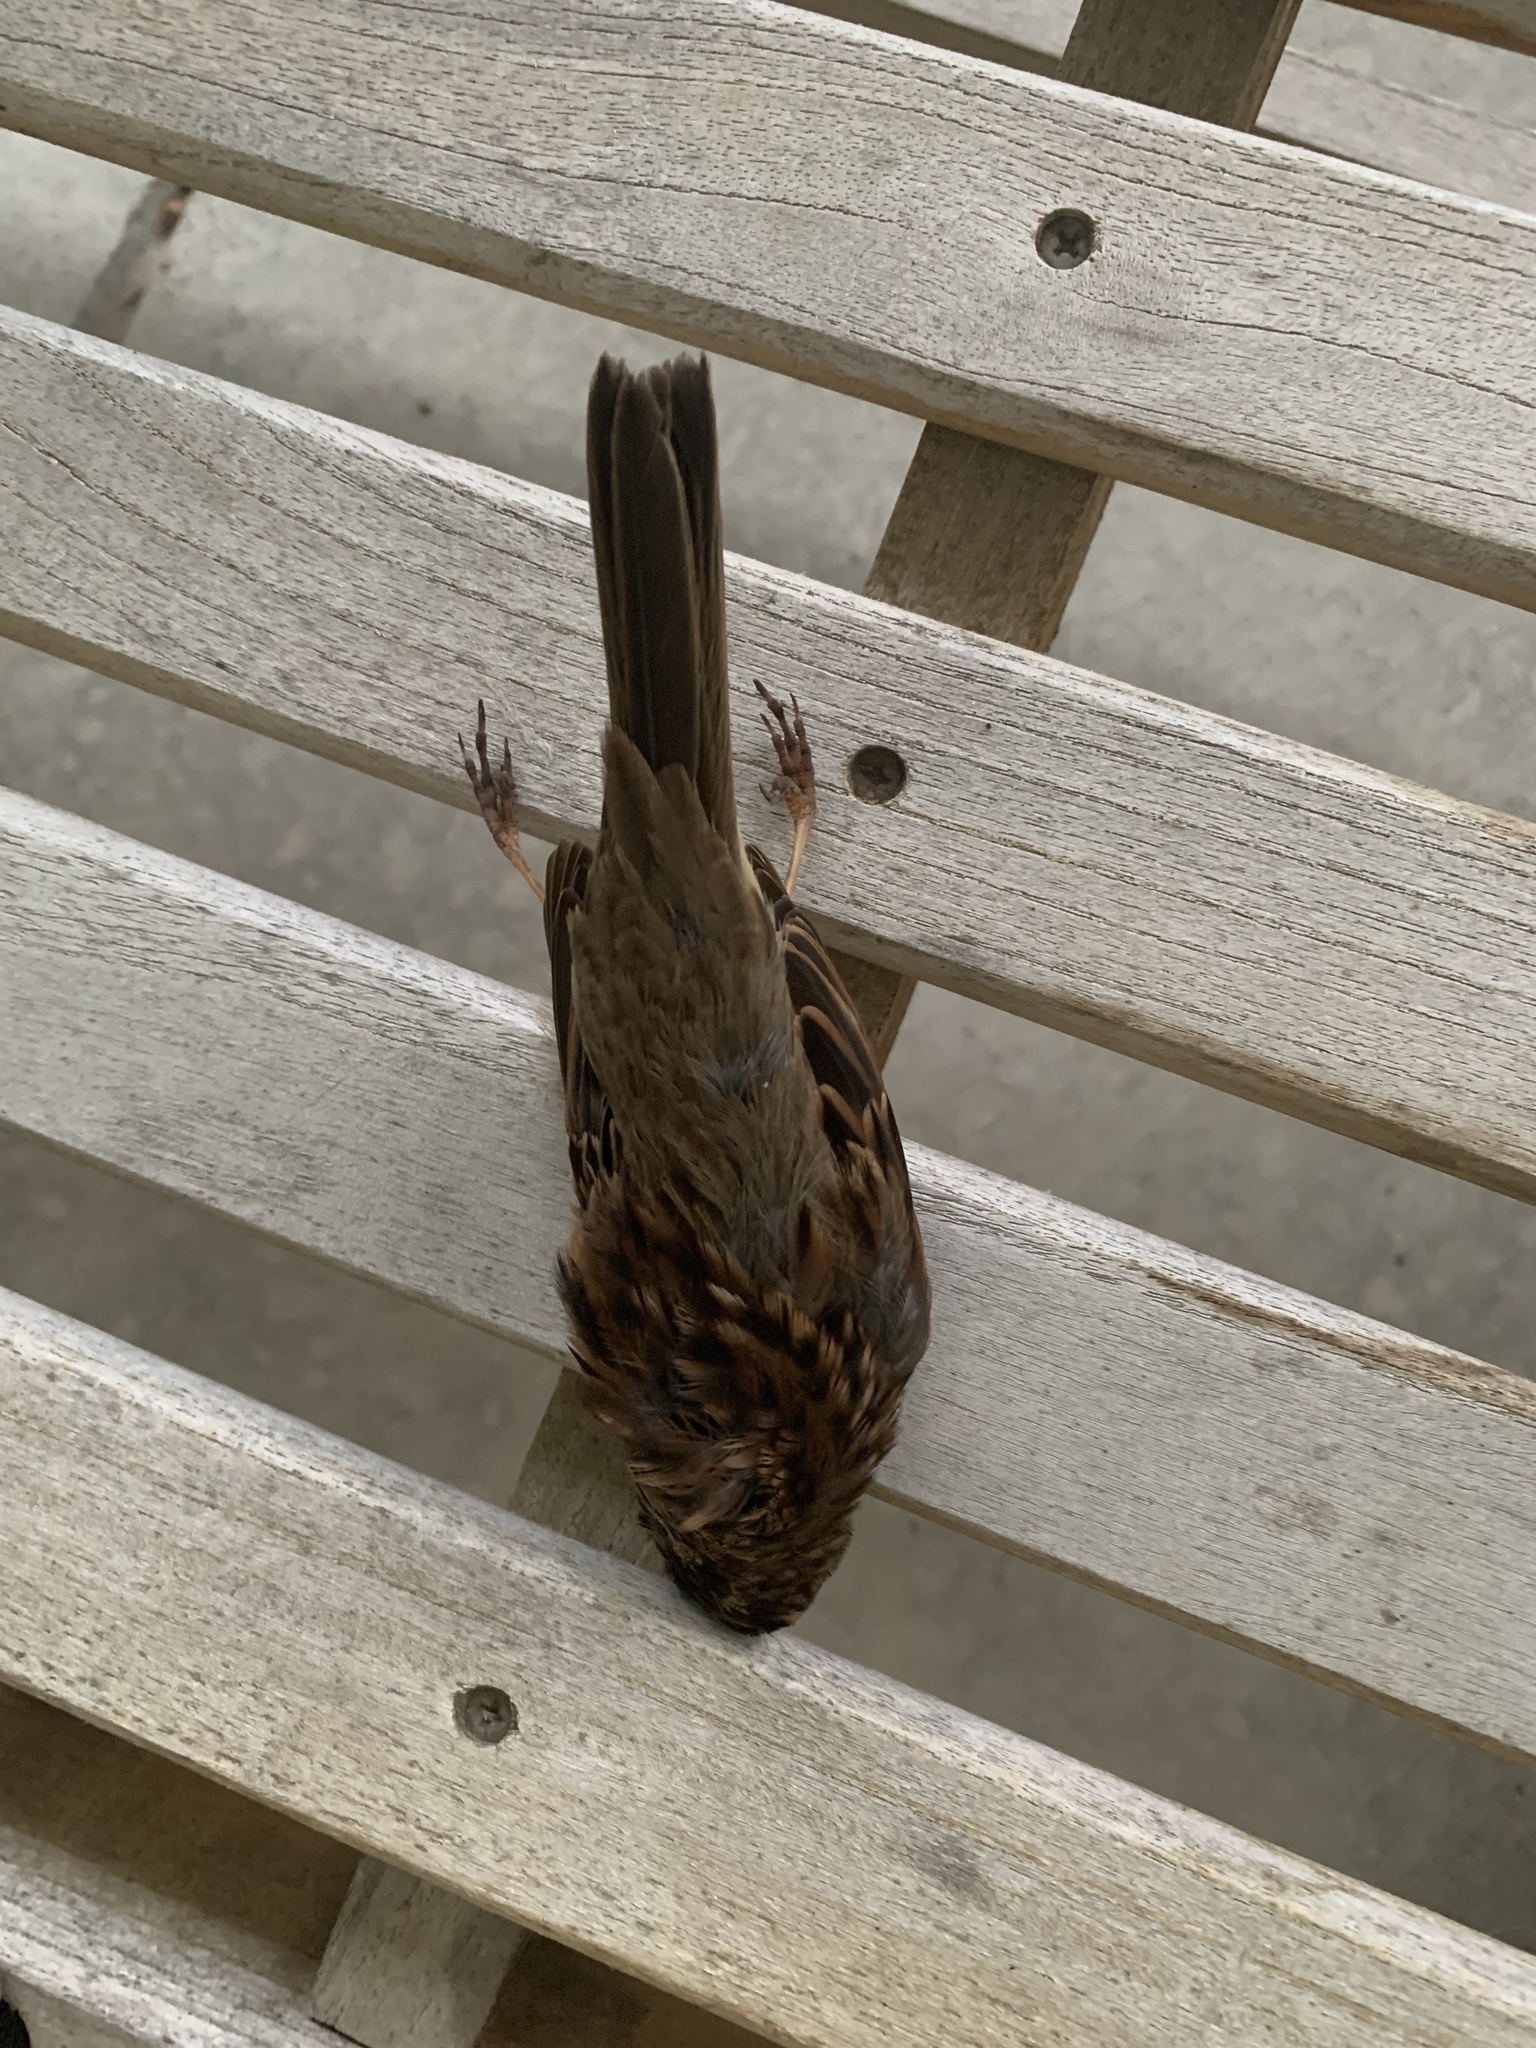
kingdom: Animalia
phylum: Chordata
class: Aves
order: Passeriformes
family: Passerellidae
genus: Zonotrichia
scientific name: Zonotrichia albicollis
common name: White-throated sparrow
